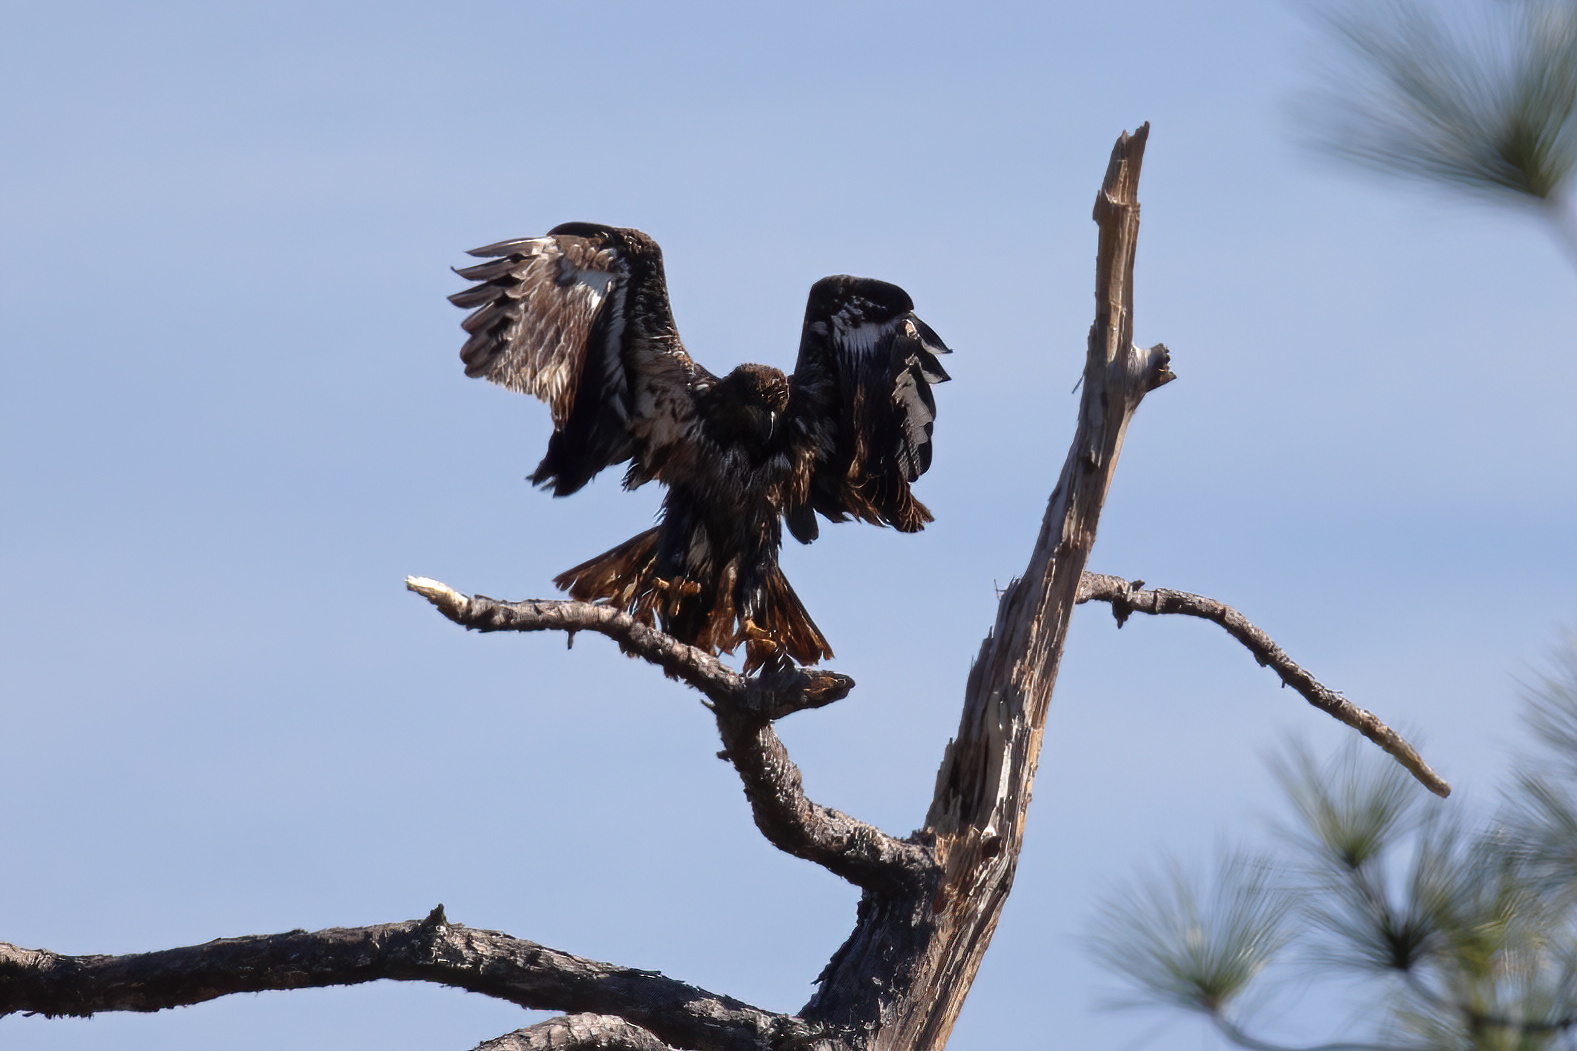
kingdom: Animalia
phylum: Chordata
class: Aves
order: Accipitriformes
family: Accipitridae
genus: Haliaeetus
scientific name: Haliaeetus leucocephalus
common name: Bald eagle
